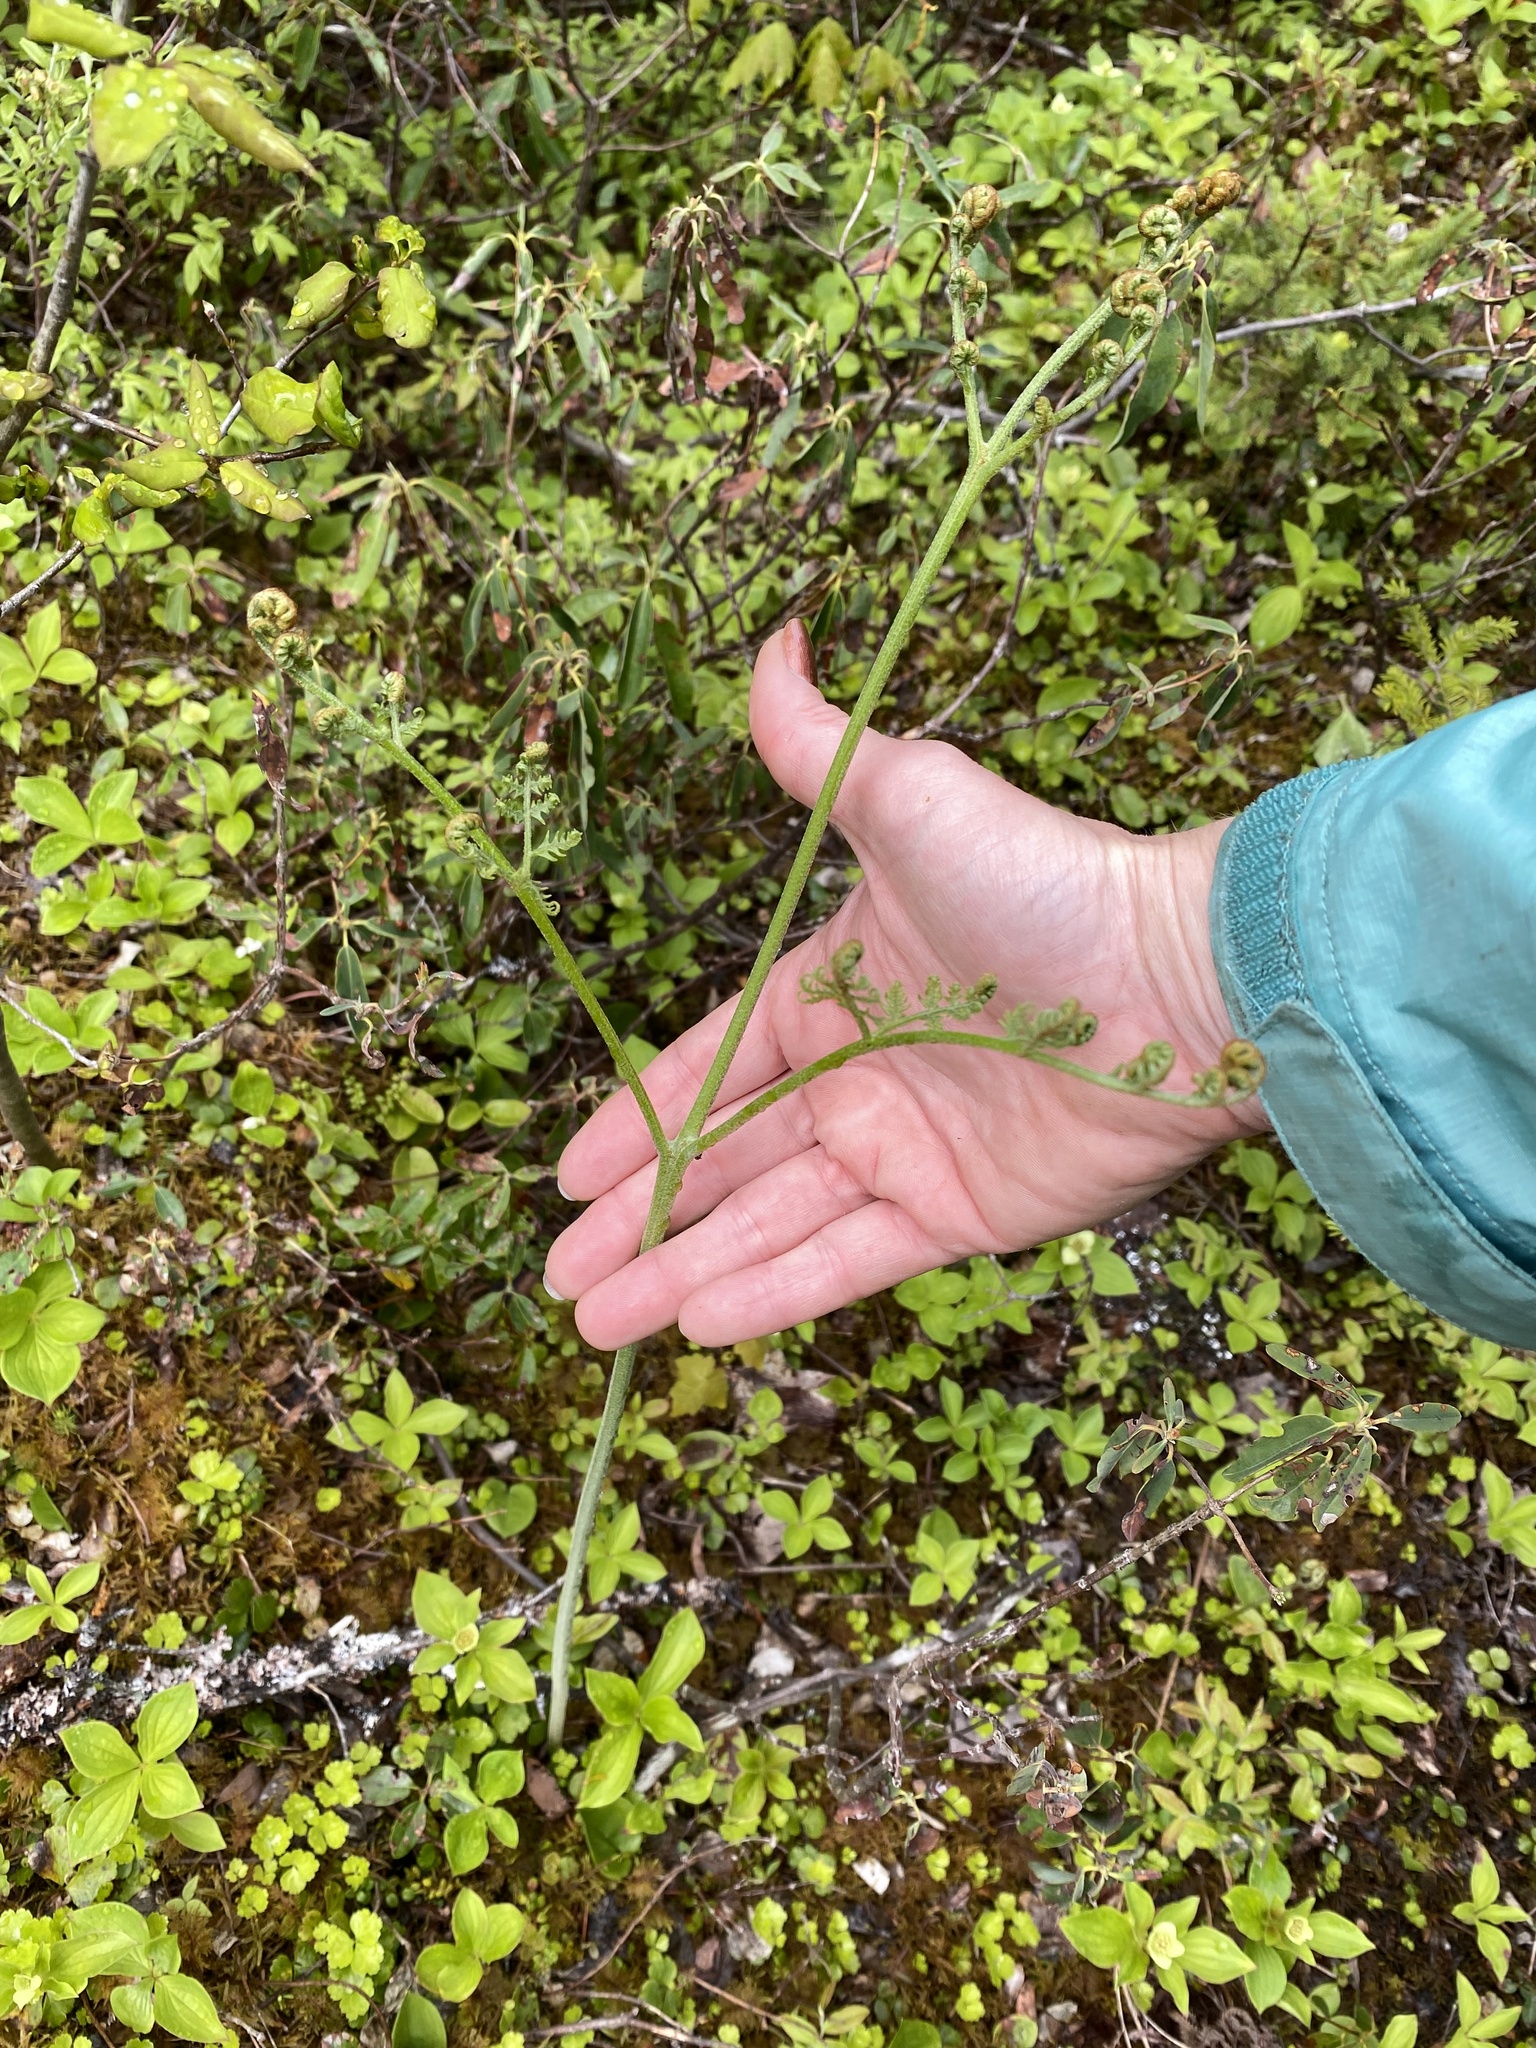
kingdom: Plantae
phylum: Tracheophyta
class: Polypodiopsida
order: Polypodiales
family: Dennstaedtiaceae
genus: Pteridium
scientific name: Pteridium aquilinum
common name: Bracken
